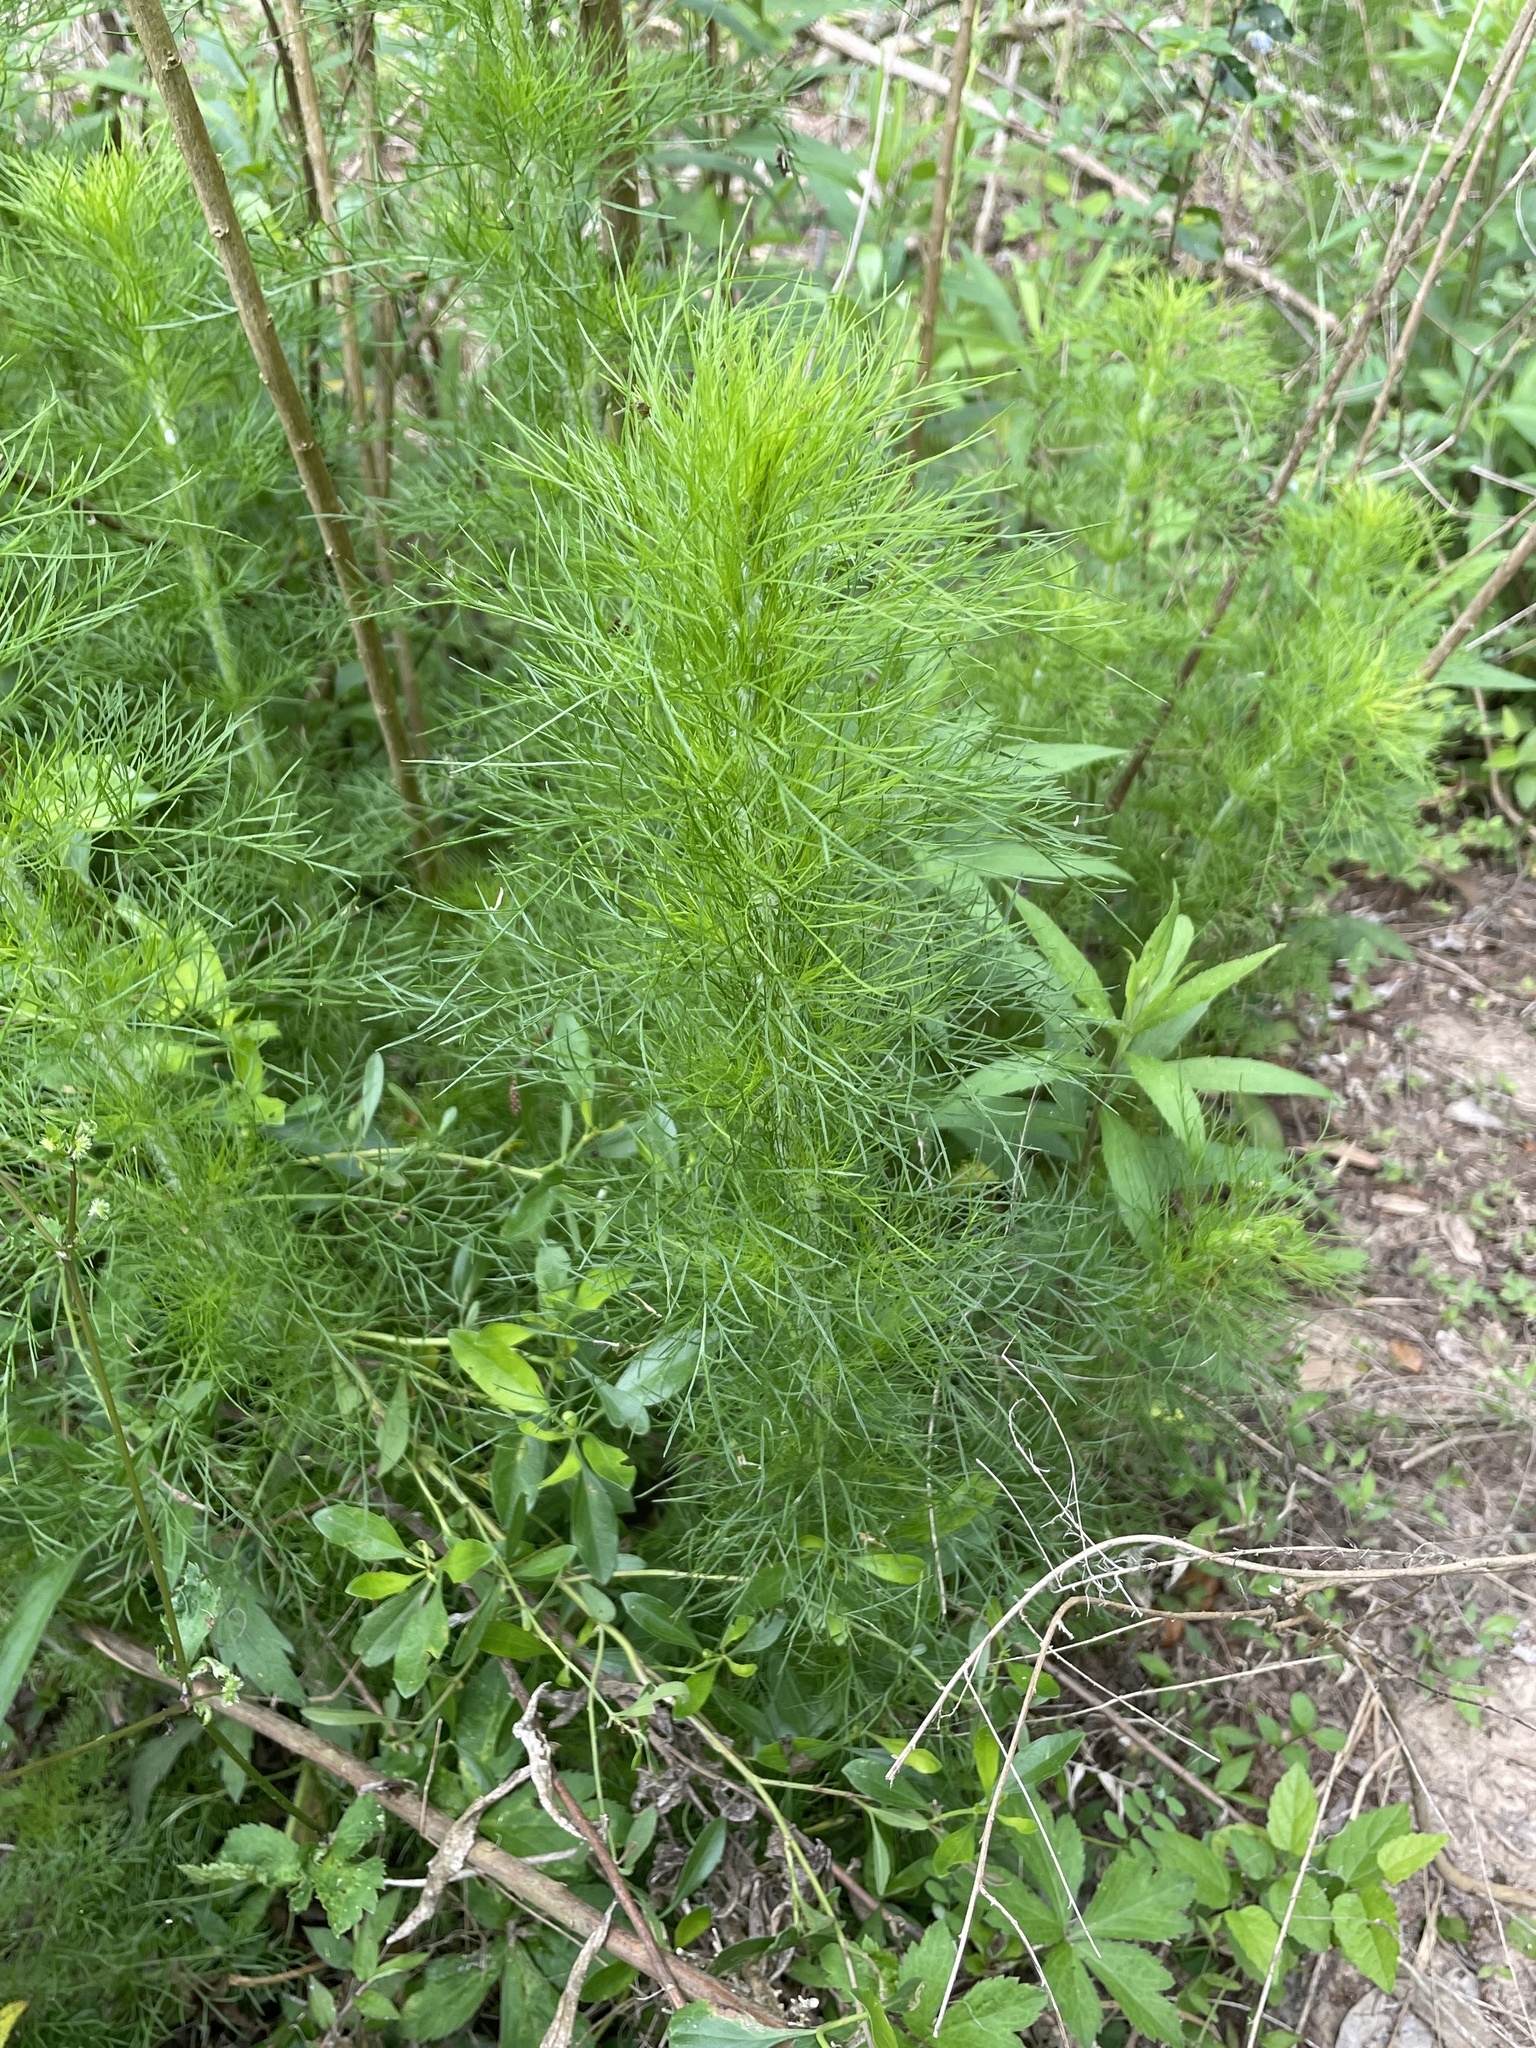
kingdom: Plantae
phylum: Tracheophyta
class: Magnoliopsida
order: Asterales
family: Asteraceae
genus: Eupatorium
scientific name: Eupatorium capillifolium
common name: Dog-fennel
